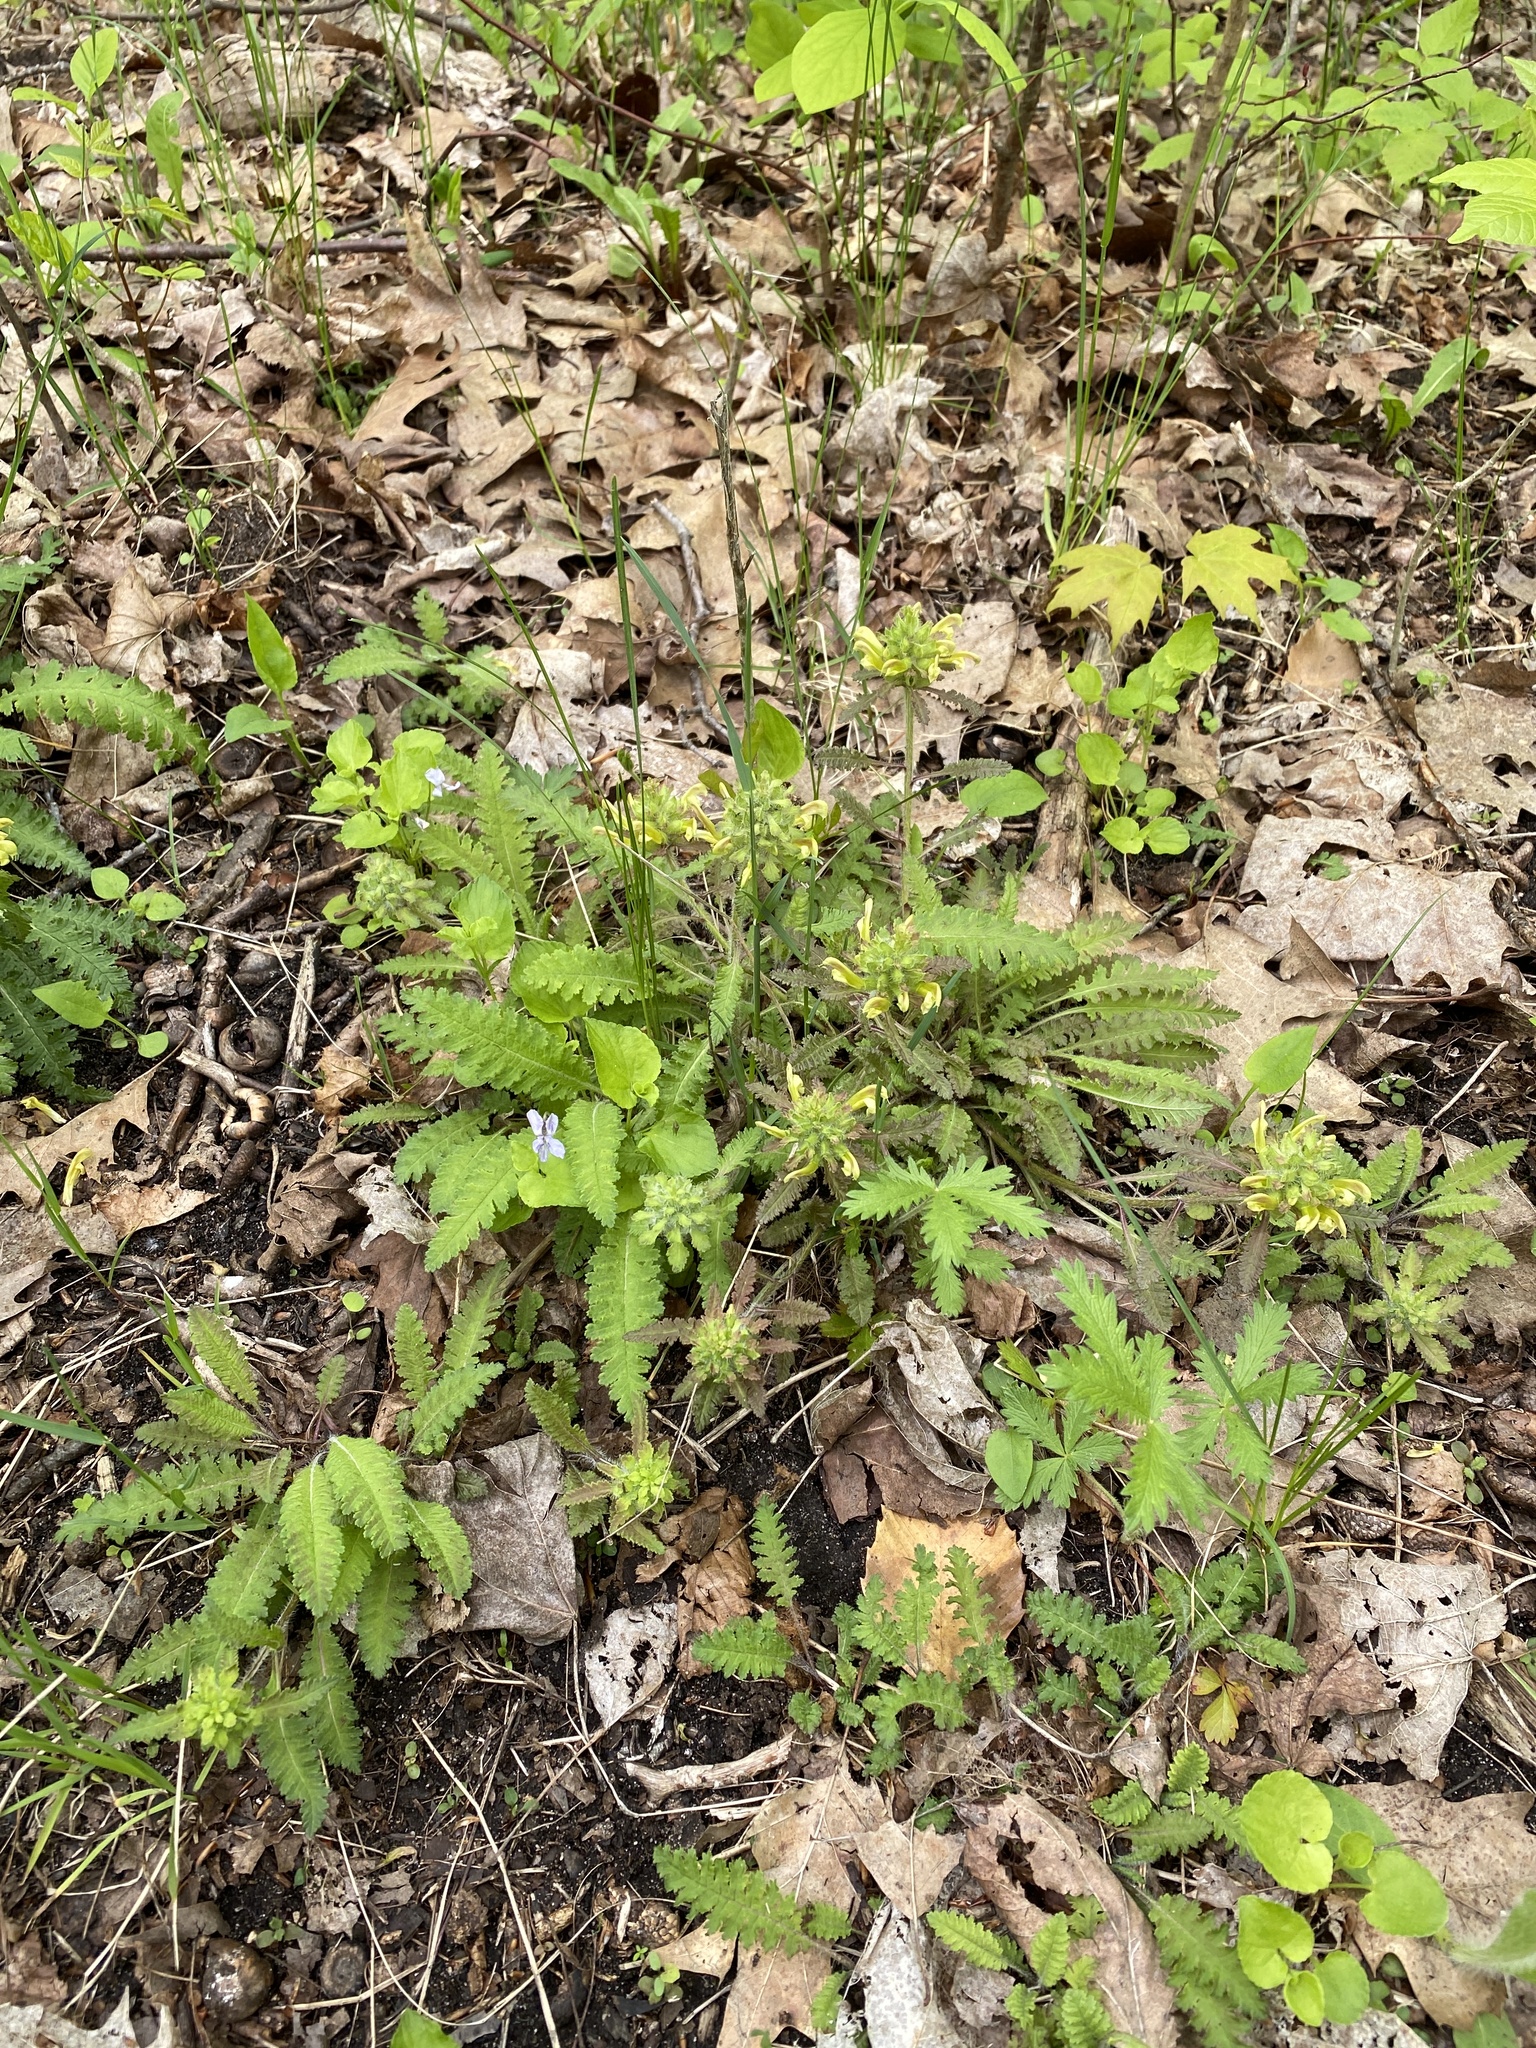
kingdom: Plantae
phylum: Tracheophyta
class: Magnoliopsida
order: Lamiales
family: Orobanchaceae
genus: Pedicularis
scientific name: Pedicularis canadensis
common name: Early lousewort
